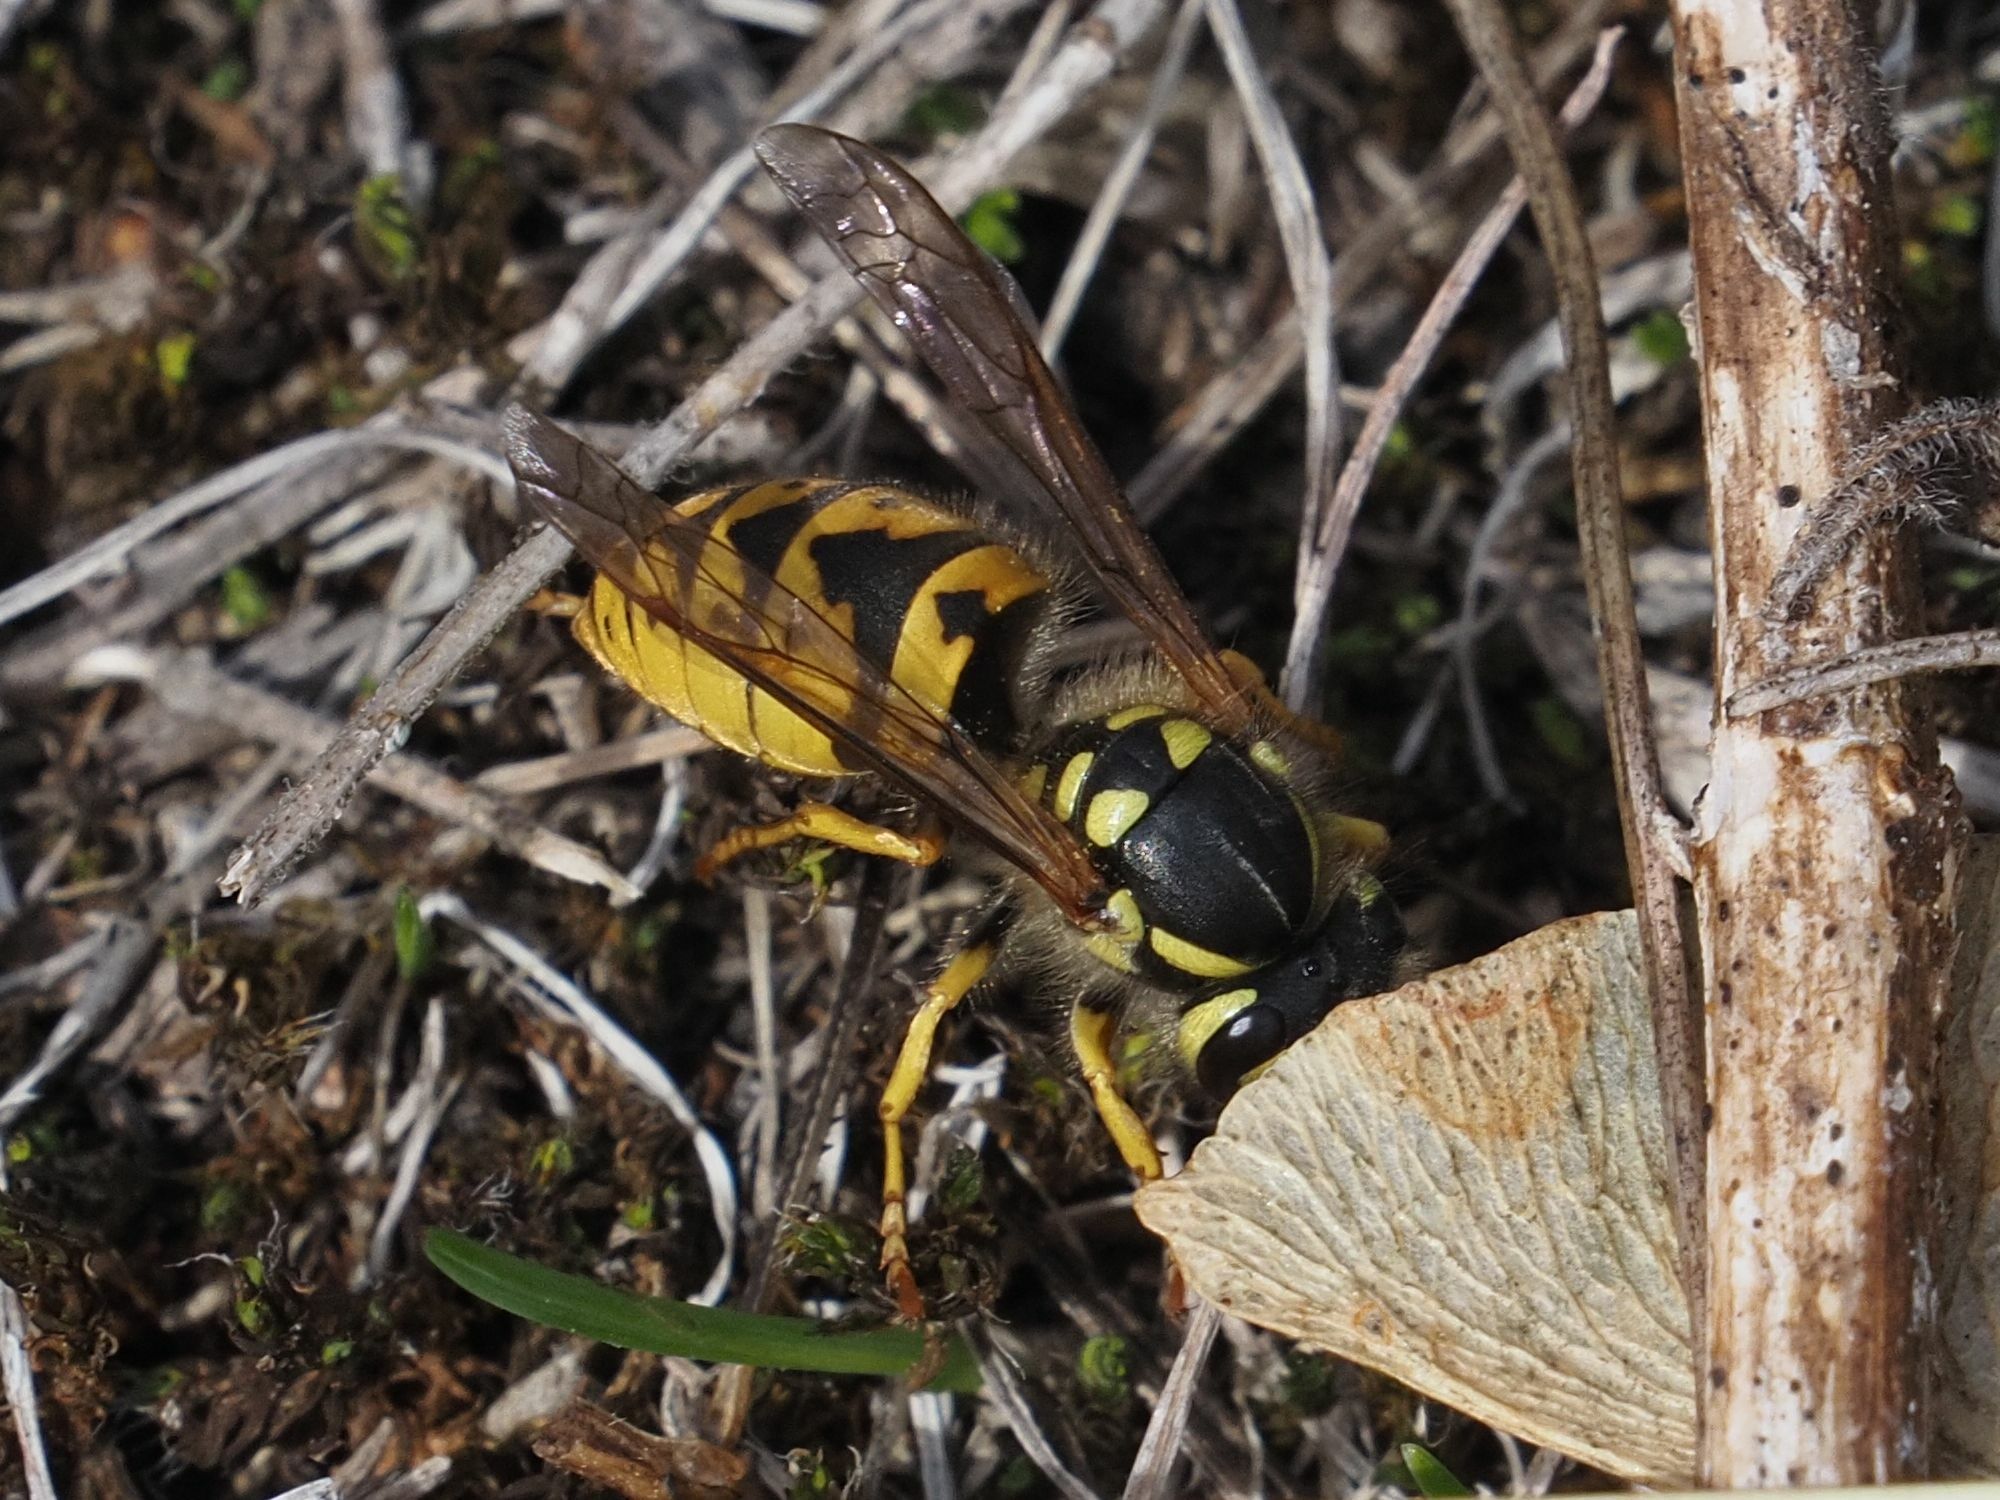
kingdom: Animalia
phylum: Arthropoda
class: Insecta
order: Hymenoptera
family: Vespidae
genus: Vespula
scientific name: Vespula germanica
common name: German wasp
